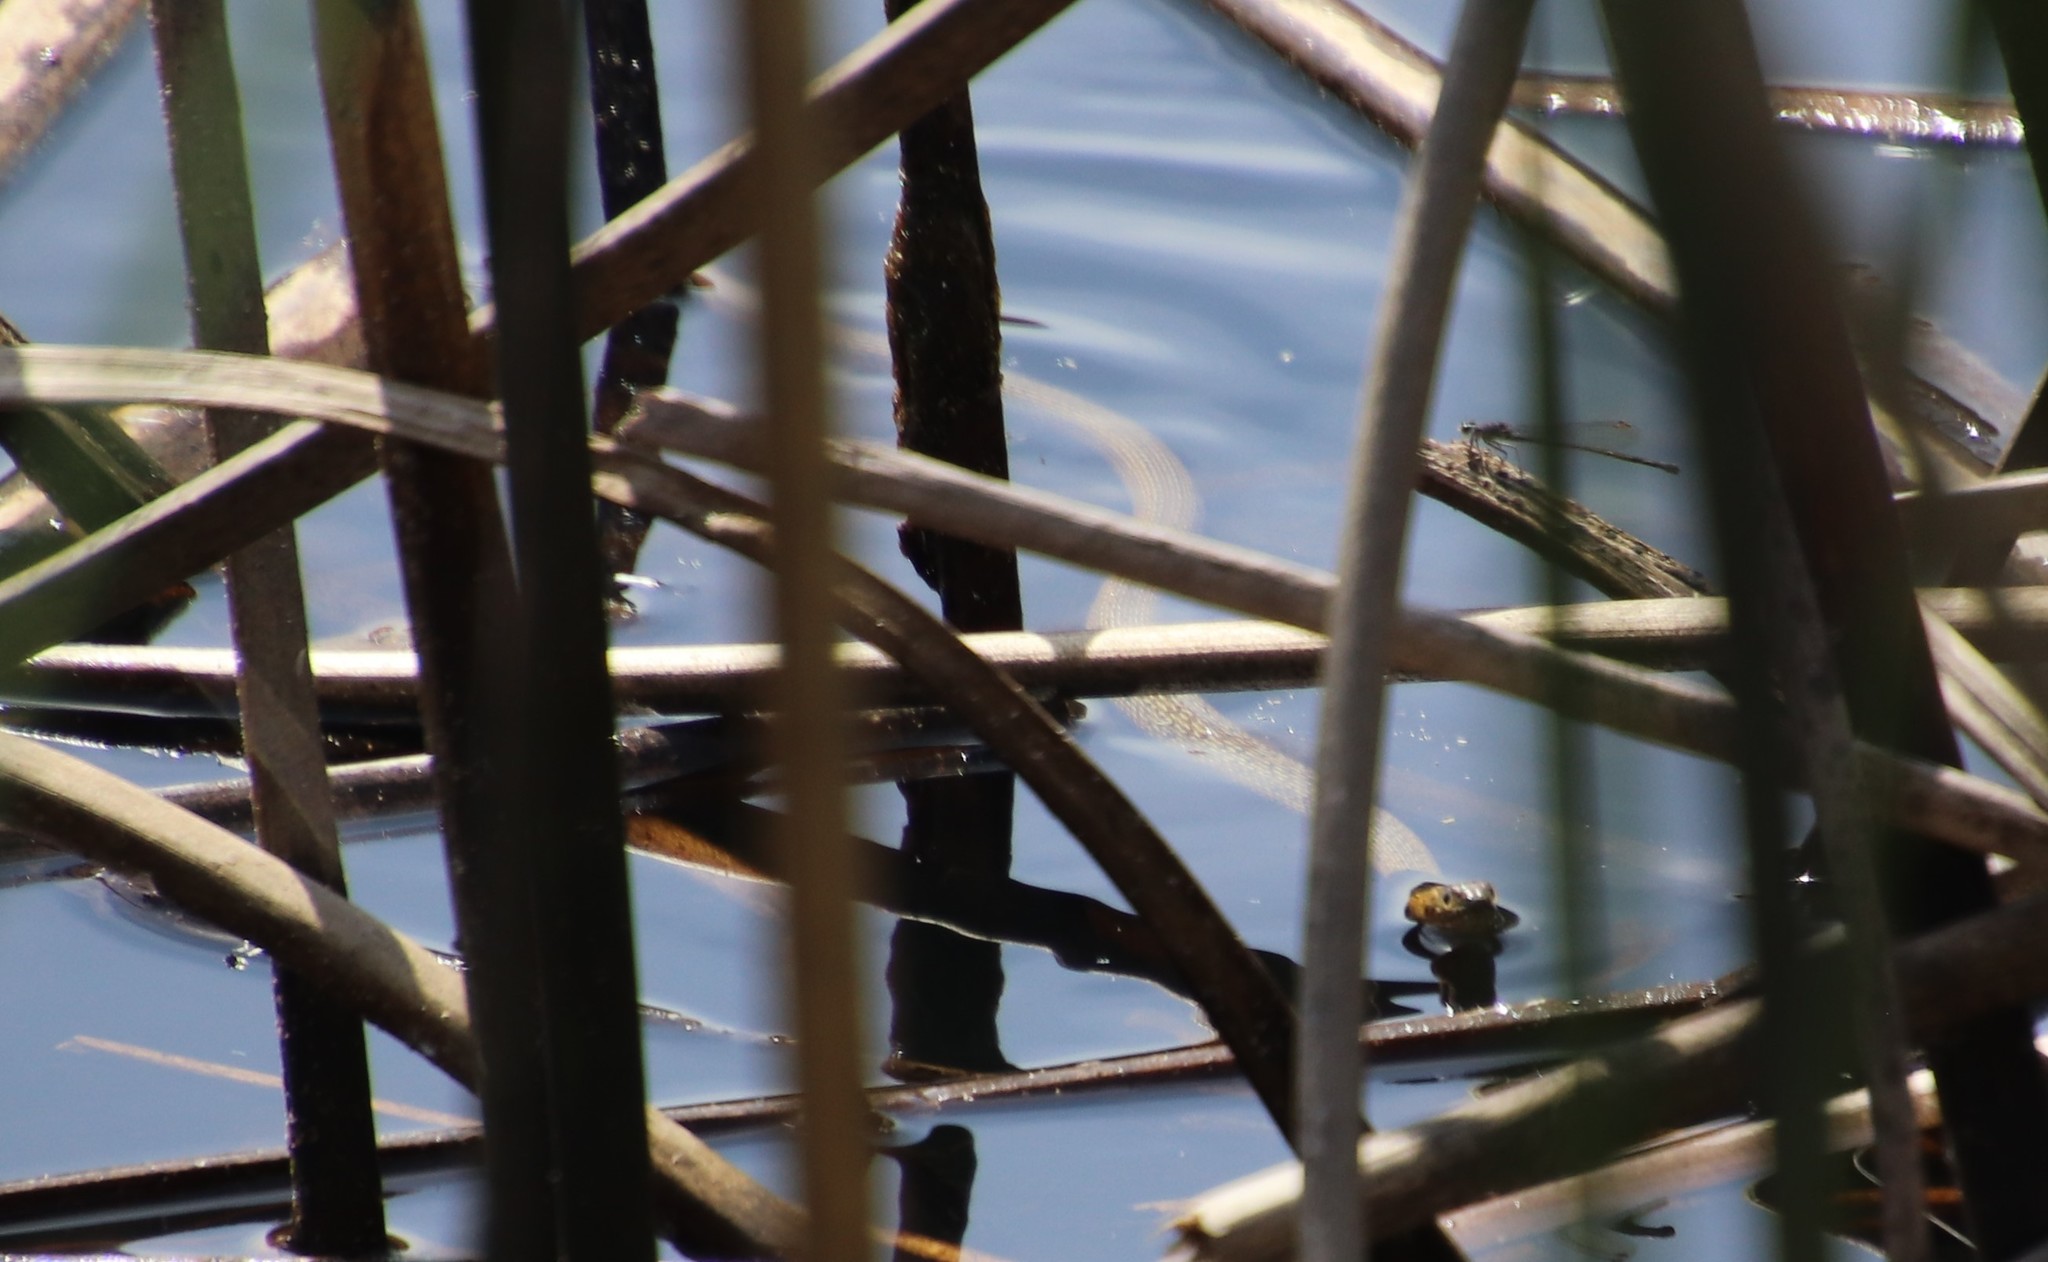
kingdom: Animalia
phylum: Chordata
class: Squamata
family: Colubridae
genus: Thamnophis
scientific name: Thamnophis hammondii
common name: Two-striped garter snake
